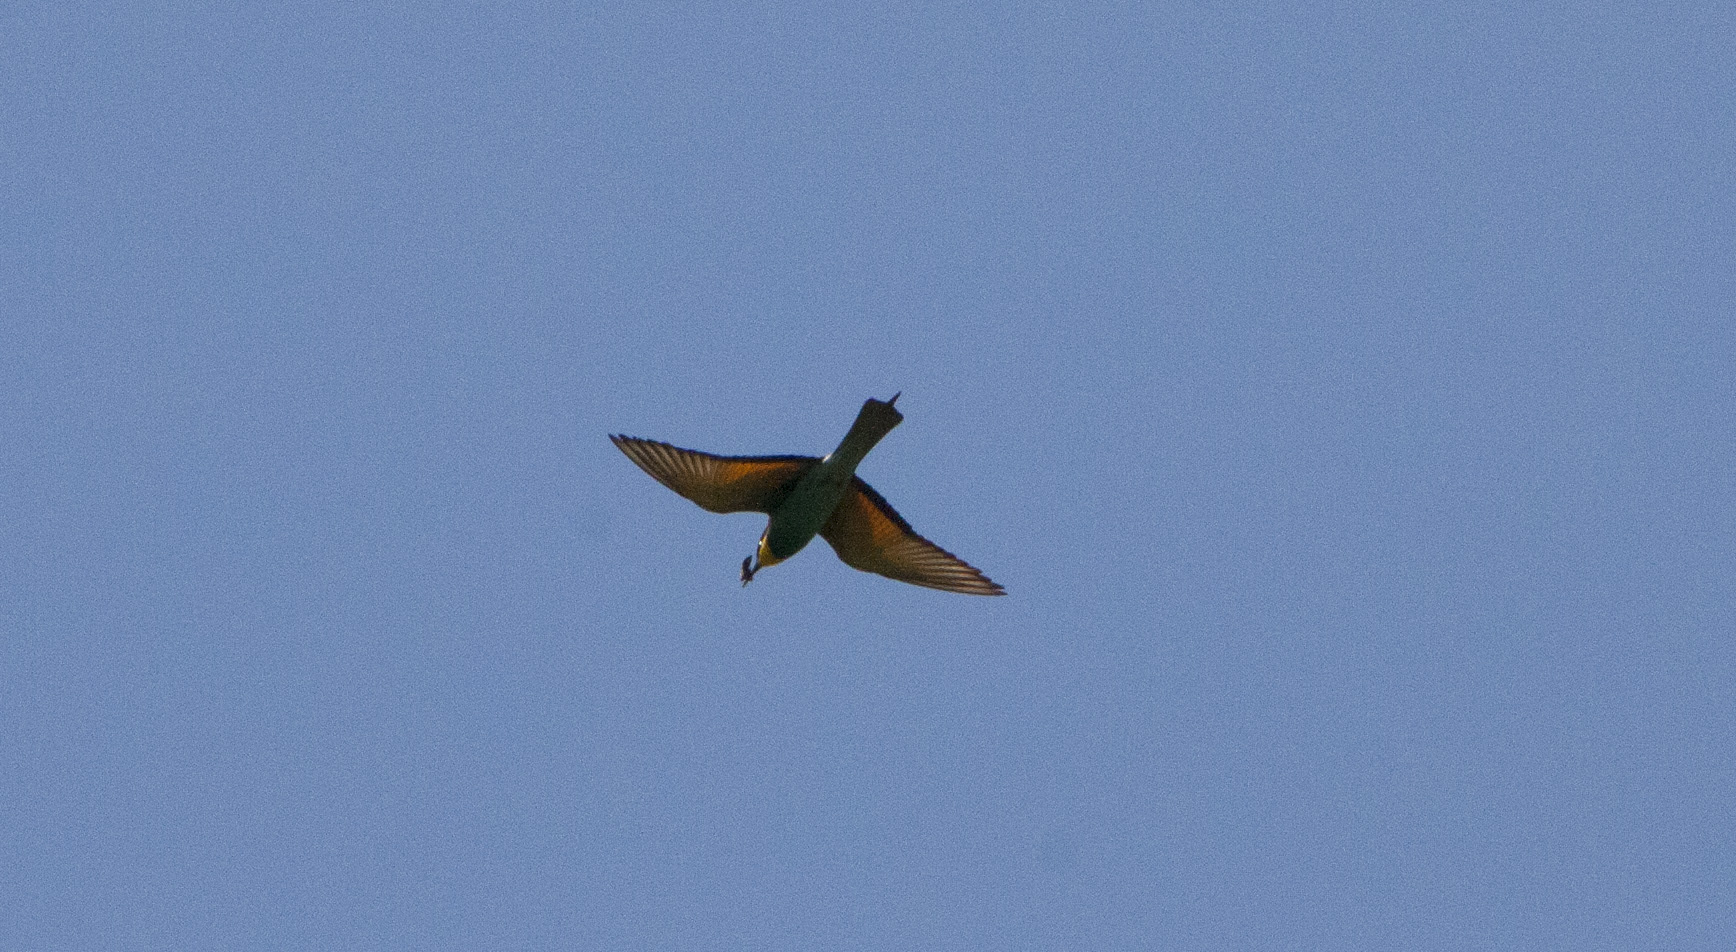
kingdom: Animalia
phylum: Chordata
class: Aves
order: Coraciiformes
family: Meropidae
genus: Merops
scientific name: Merops apiaster
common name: European bee-eater
